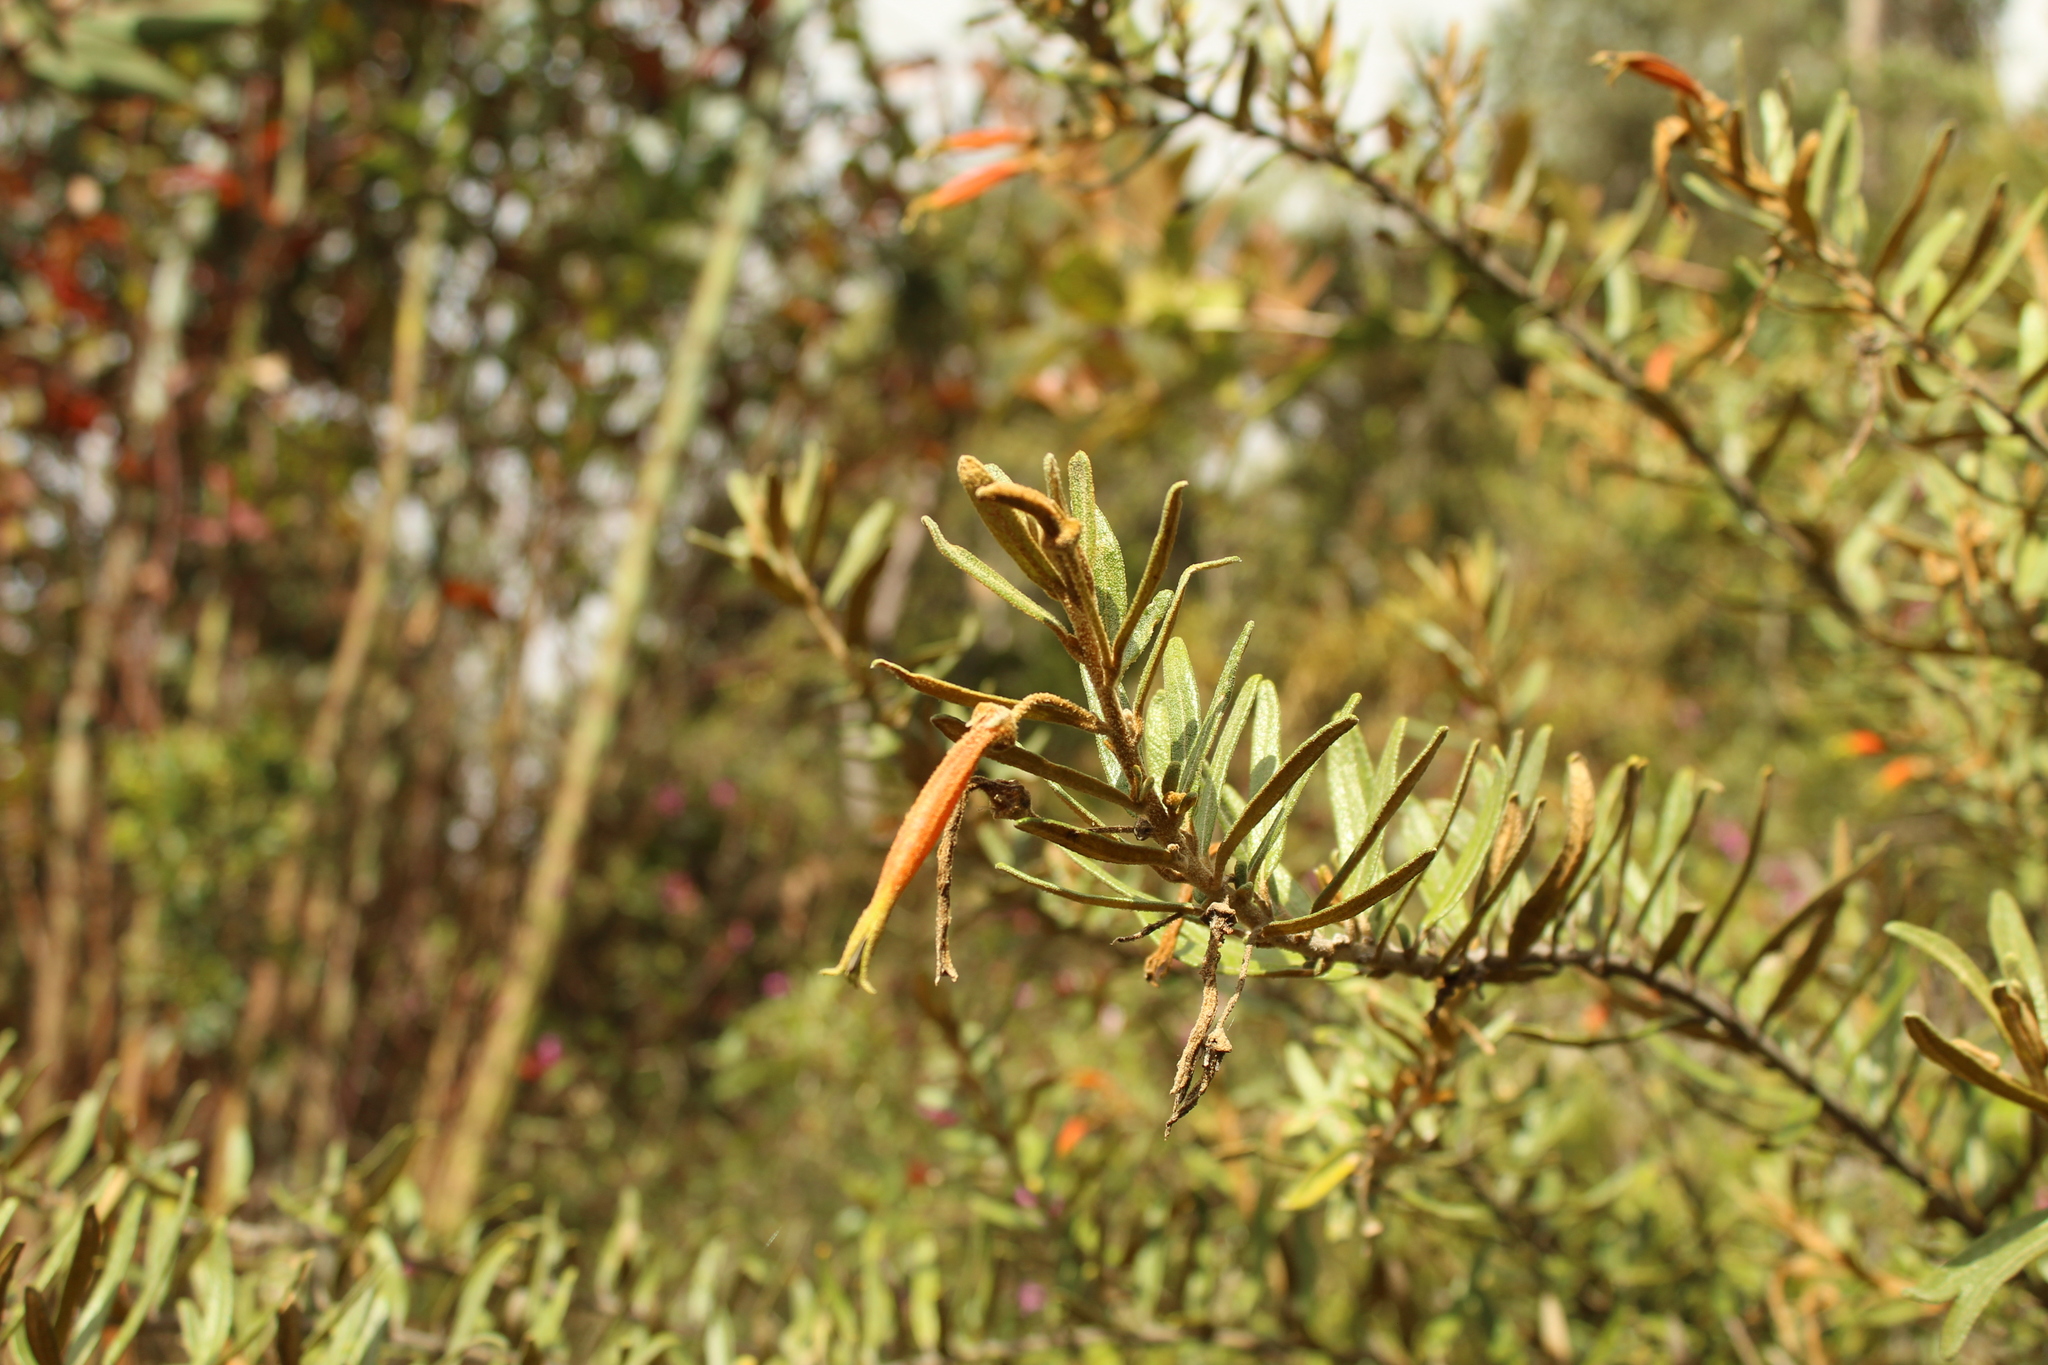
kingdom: Plantae
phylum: Tracheophyta
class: Magnoliopsida
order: Asterales
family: Campanulaceae
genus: Siphocampylus
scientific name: Siphocampylus columnae
